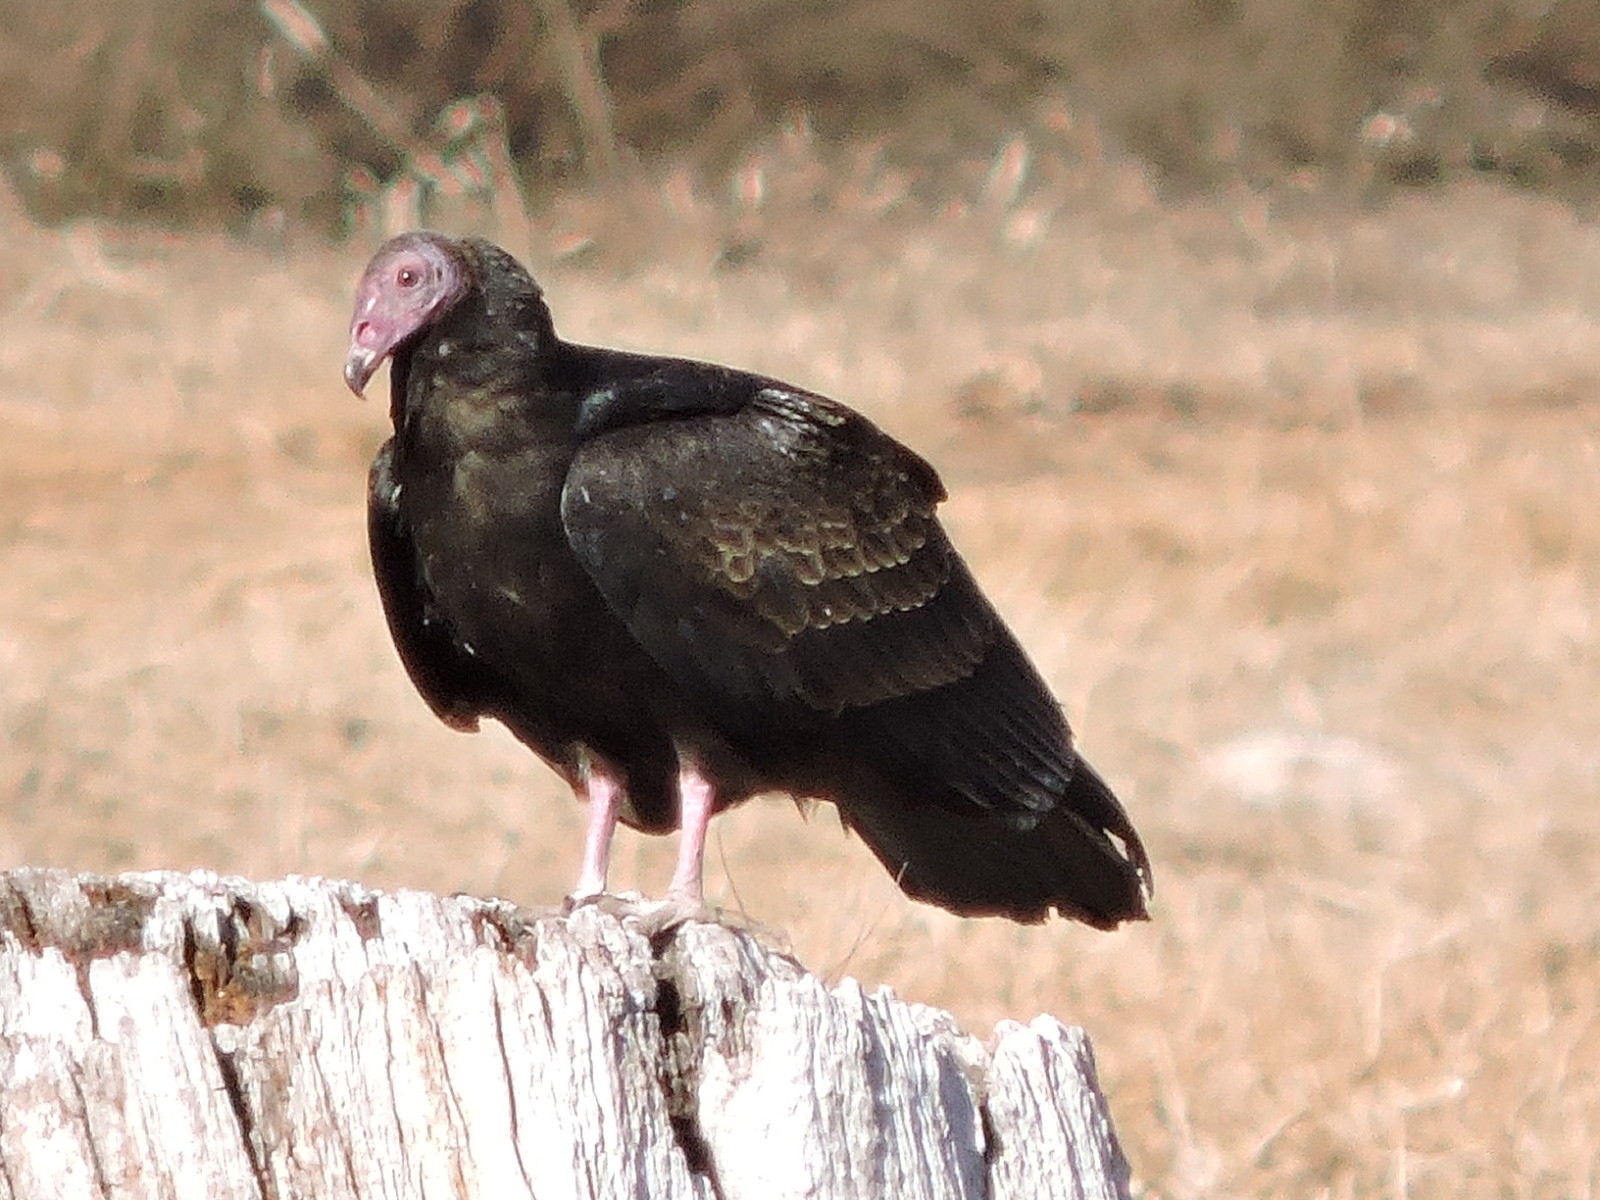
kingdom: Animalia
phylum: Chordata
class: Aves
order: Accipitriformes
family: Cathartidae
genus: Cathartes
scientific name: Cathartes aura
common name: Turkey vulture
